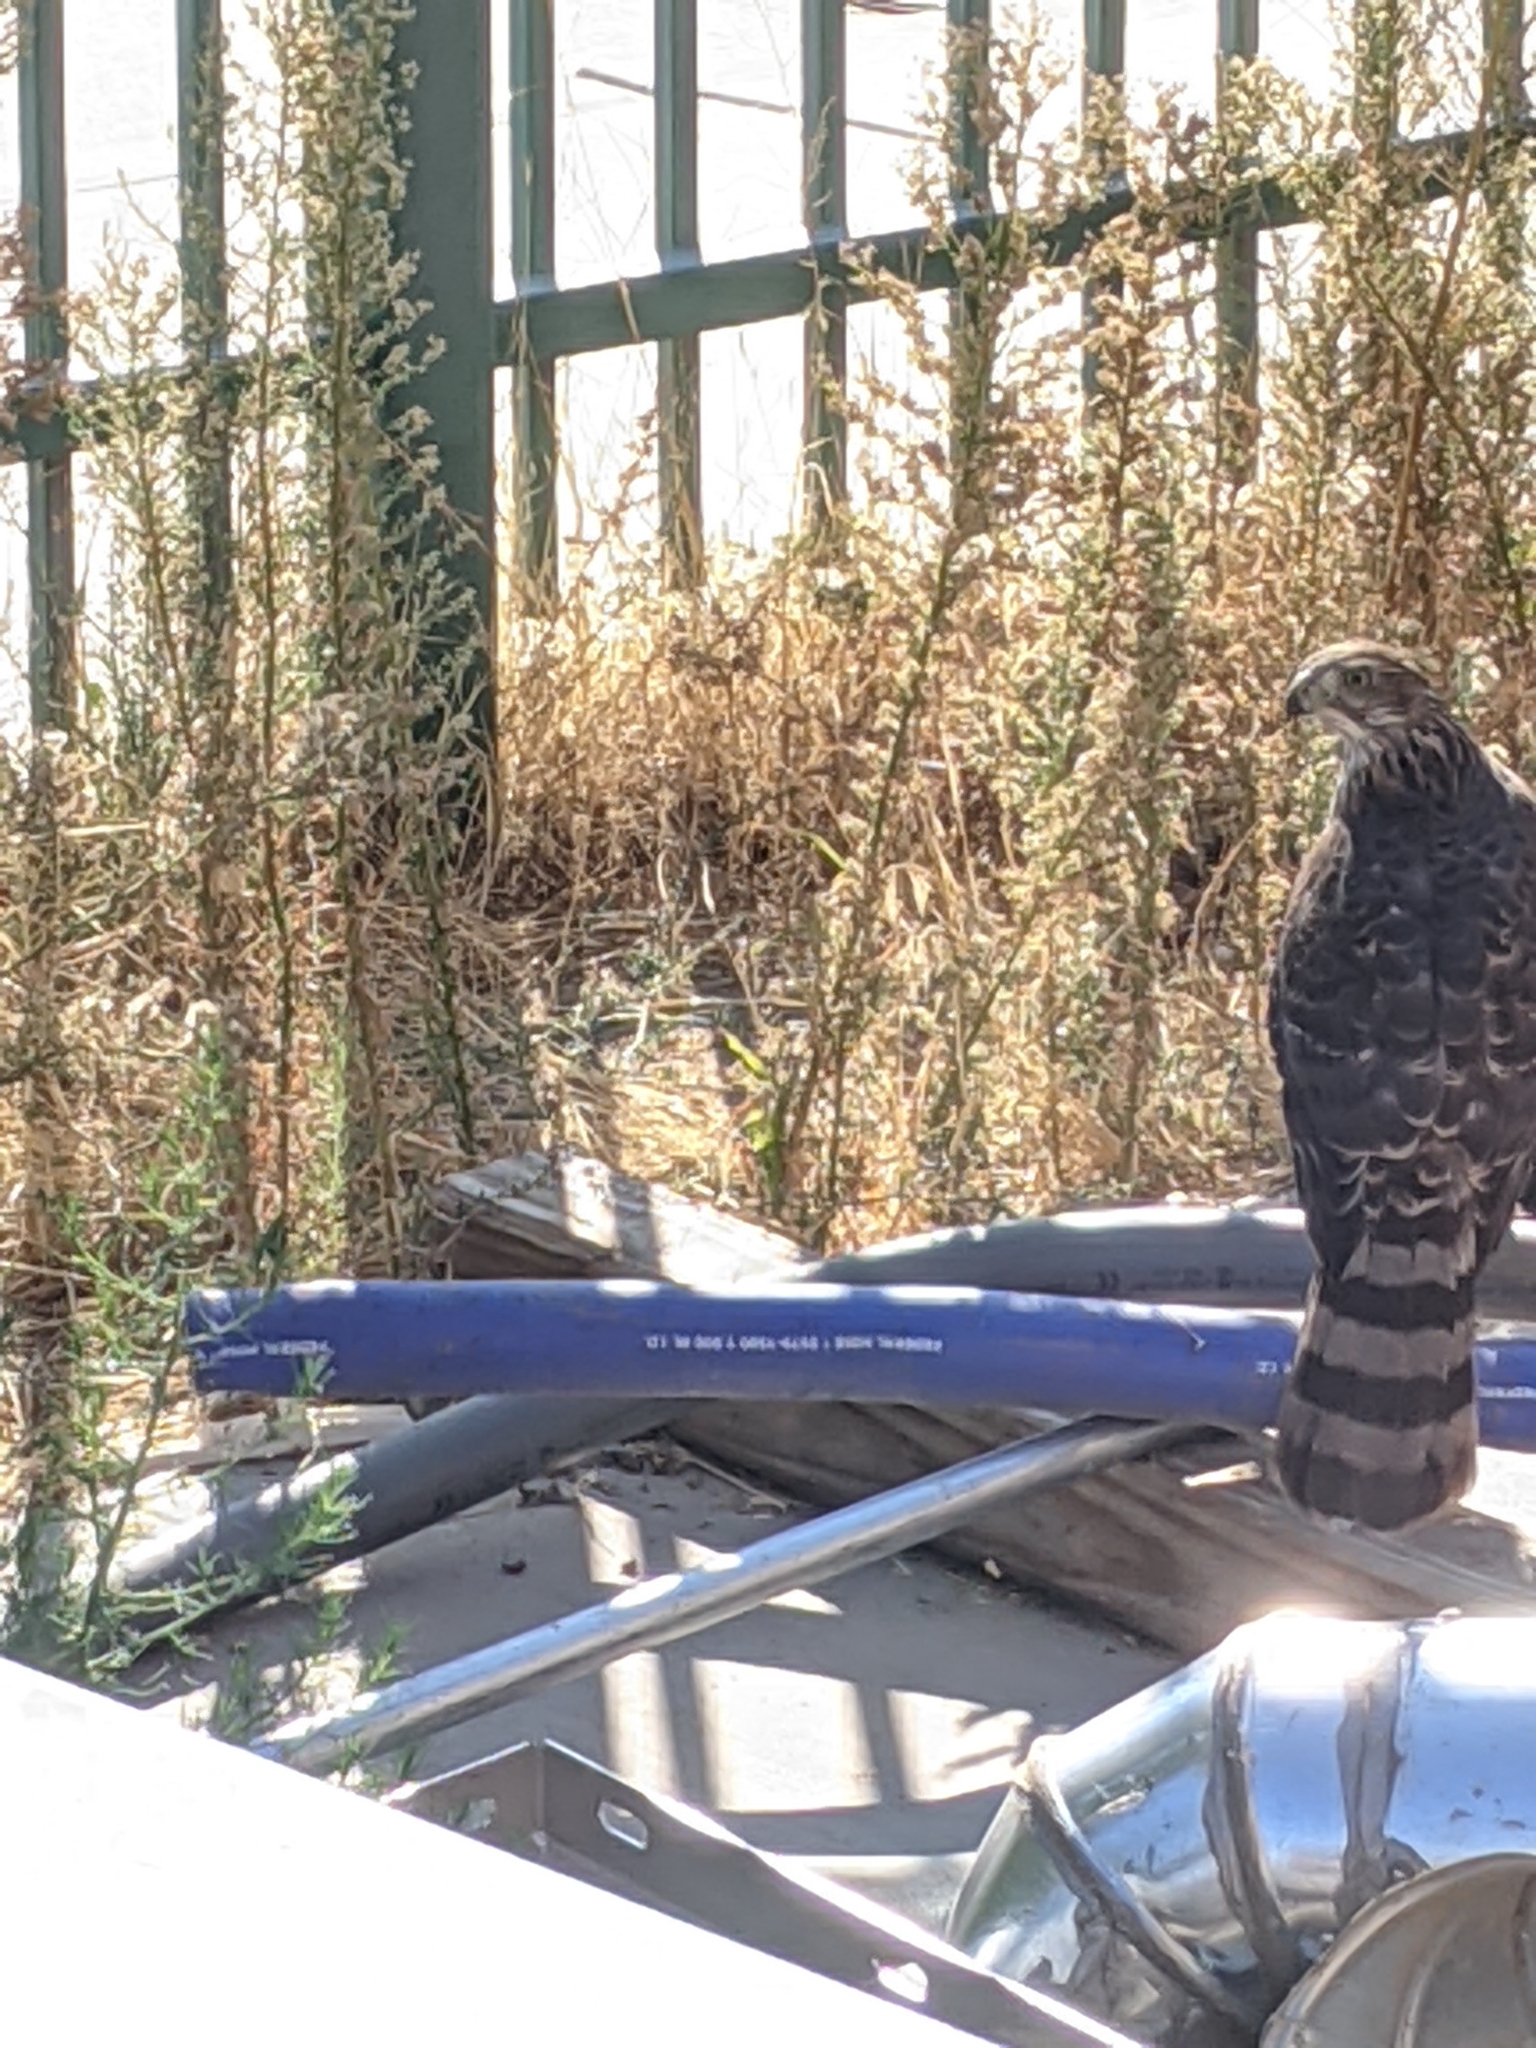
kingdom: Animalia
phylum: Chordata
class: Aves
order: Accipitriformes
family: Accipitridae
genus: Accipiter
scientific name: Accipiter cooperii
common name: Cooper's hawk
